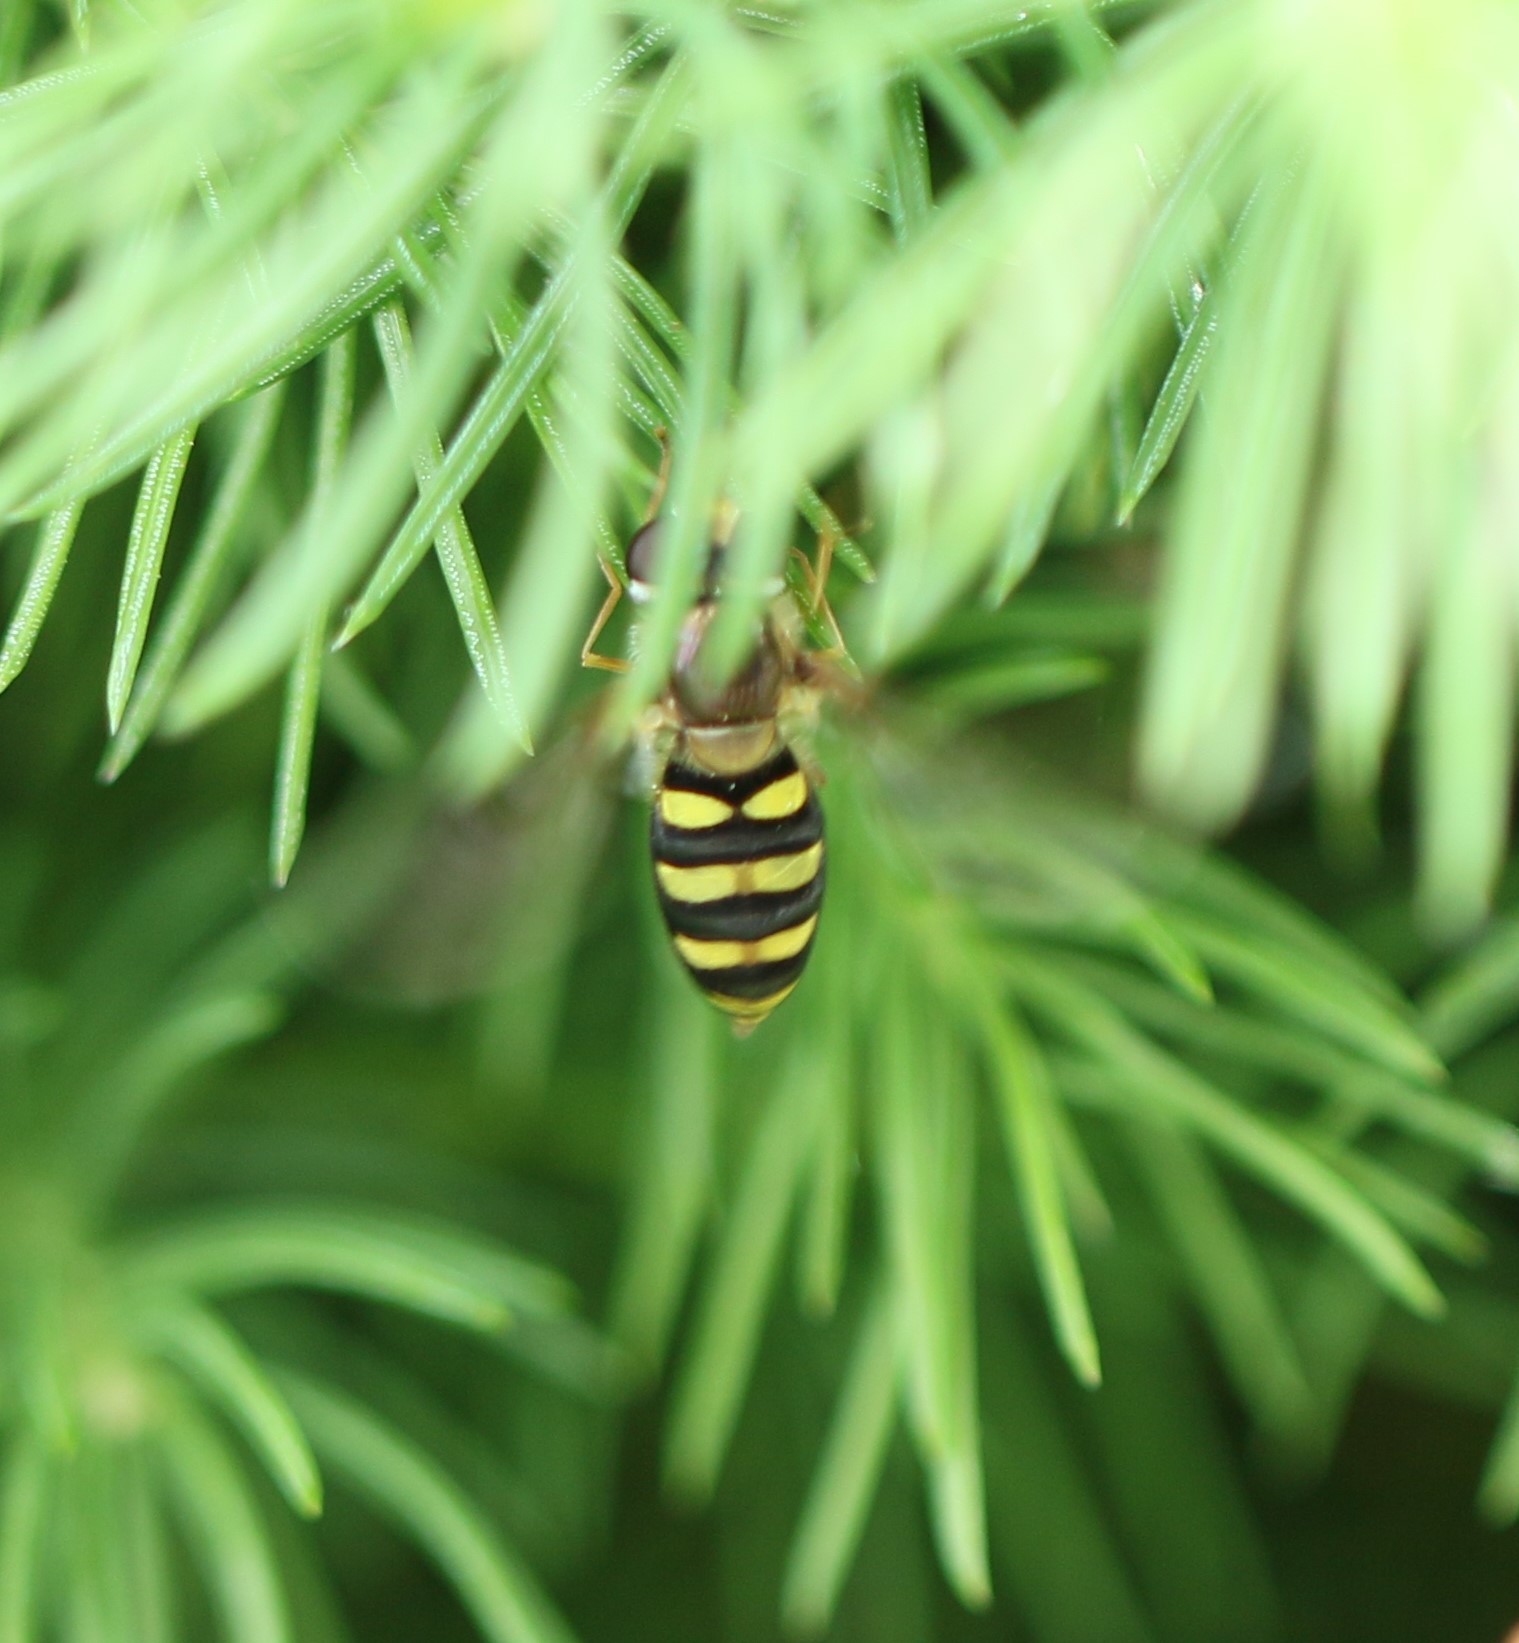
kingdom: Animalia
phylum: Arthropoda
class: Insecta
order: Diptera
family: Syrphidae
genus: Eupeodes
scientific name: Eupeodes
